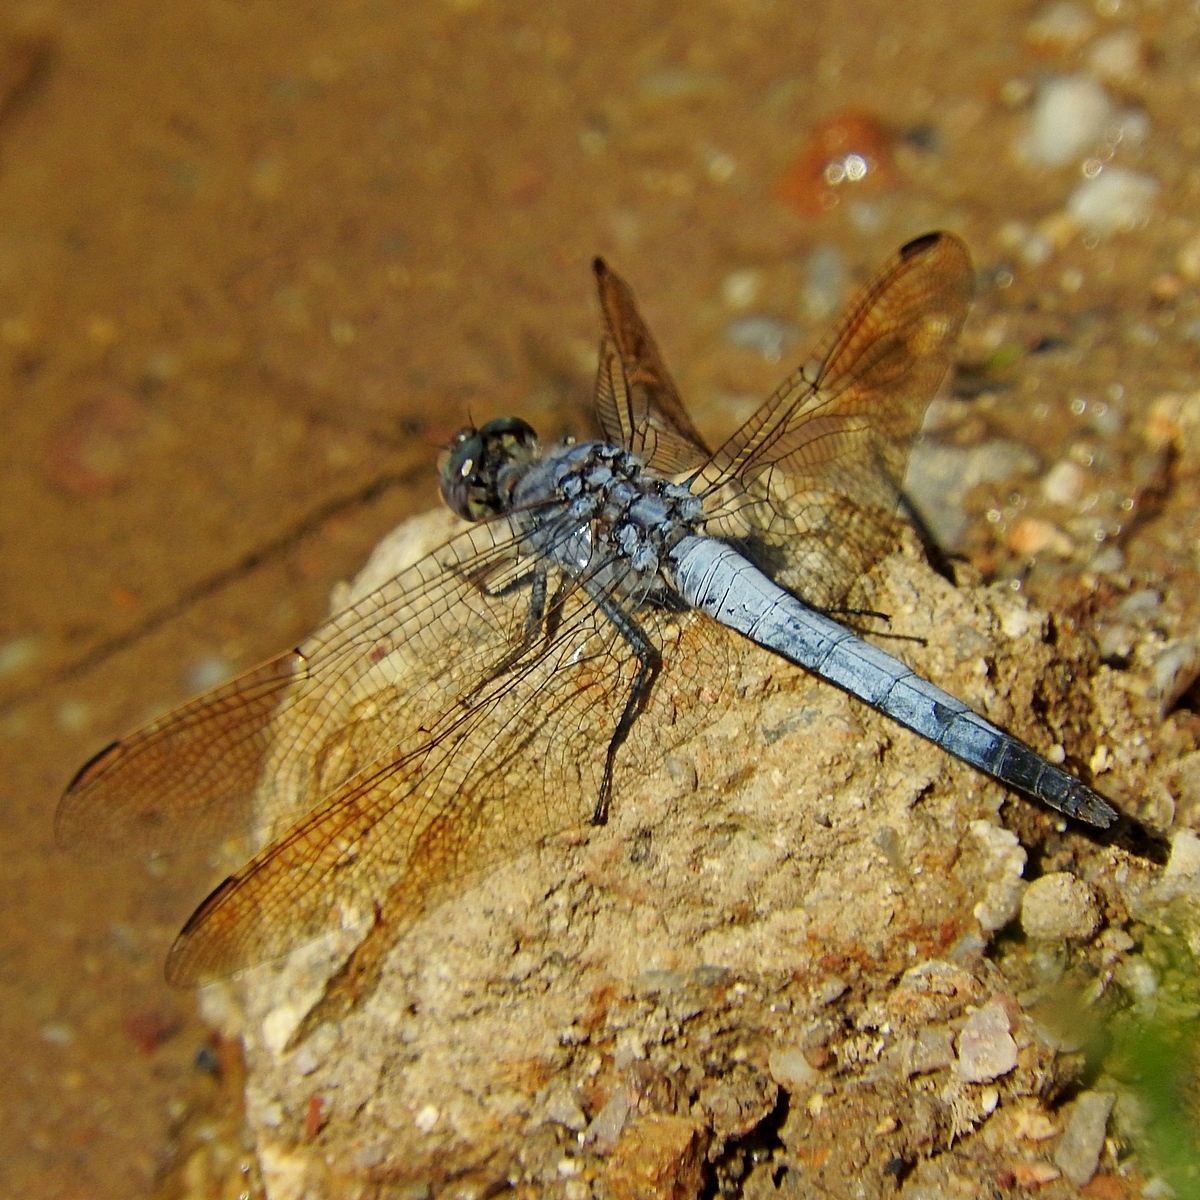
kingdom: Animalia
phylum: Arthropoda
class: Insecta
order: Odonata
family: Libellulidae
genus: Orthetrum
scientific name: Orthetrum caledonicum
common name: Blue skimmer
